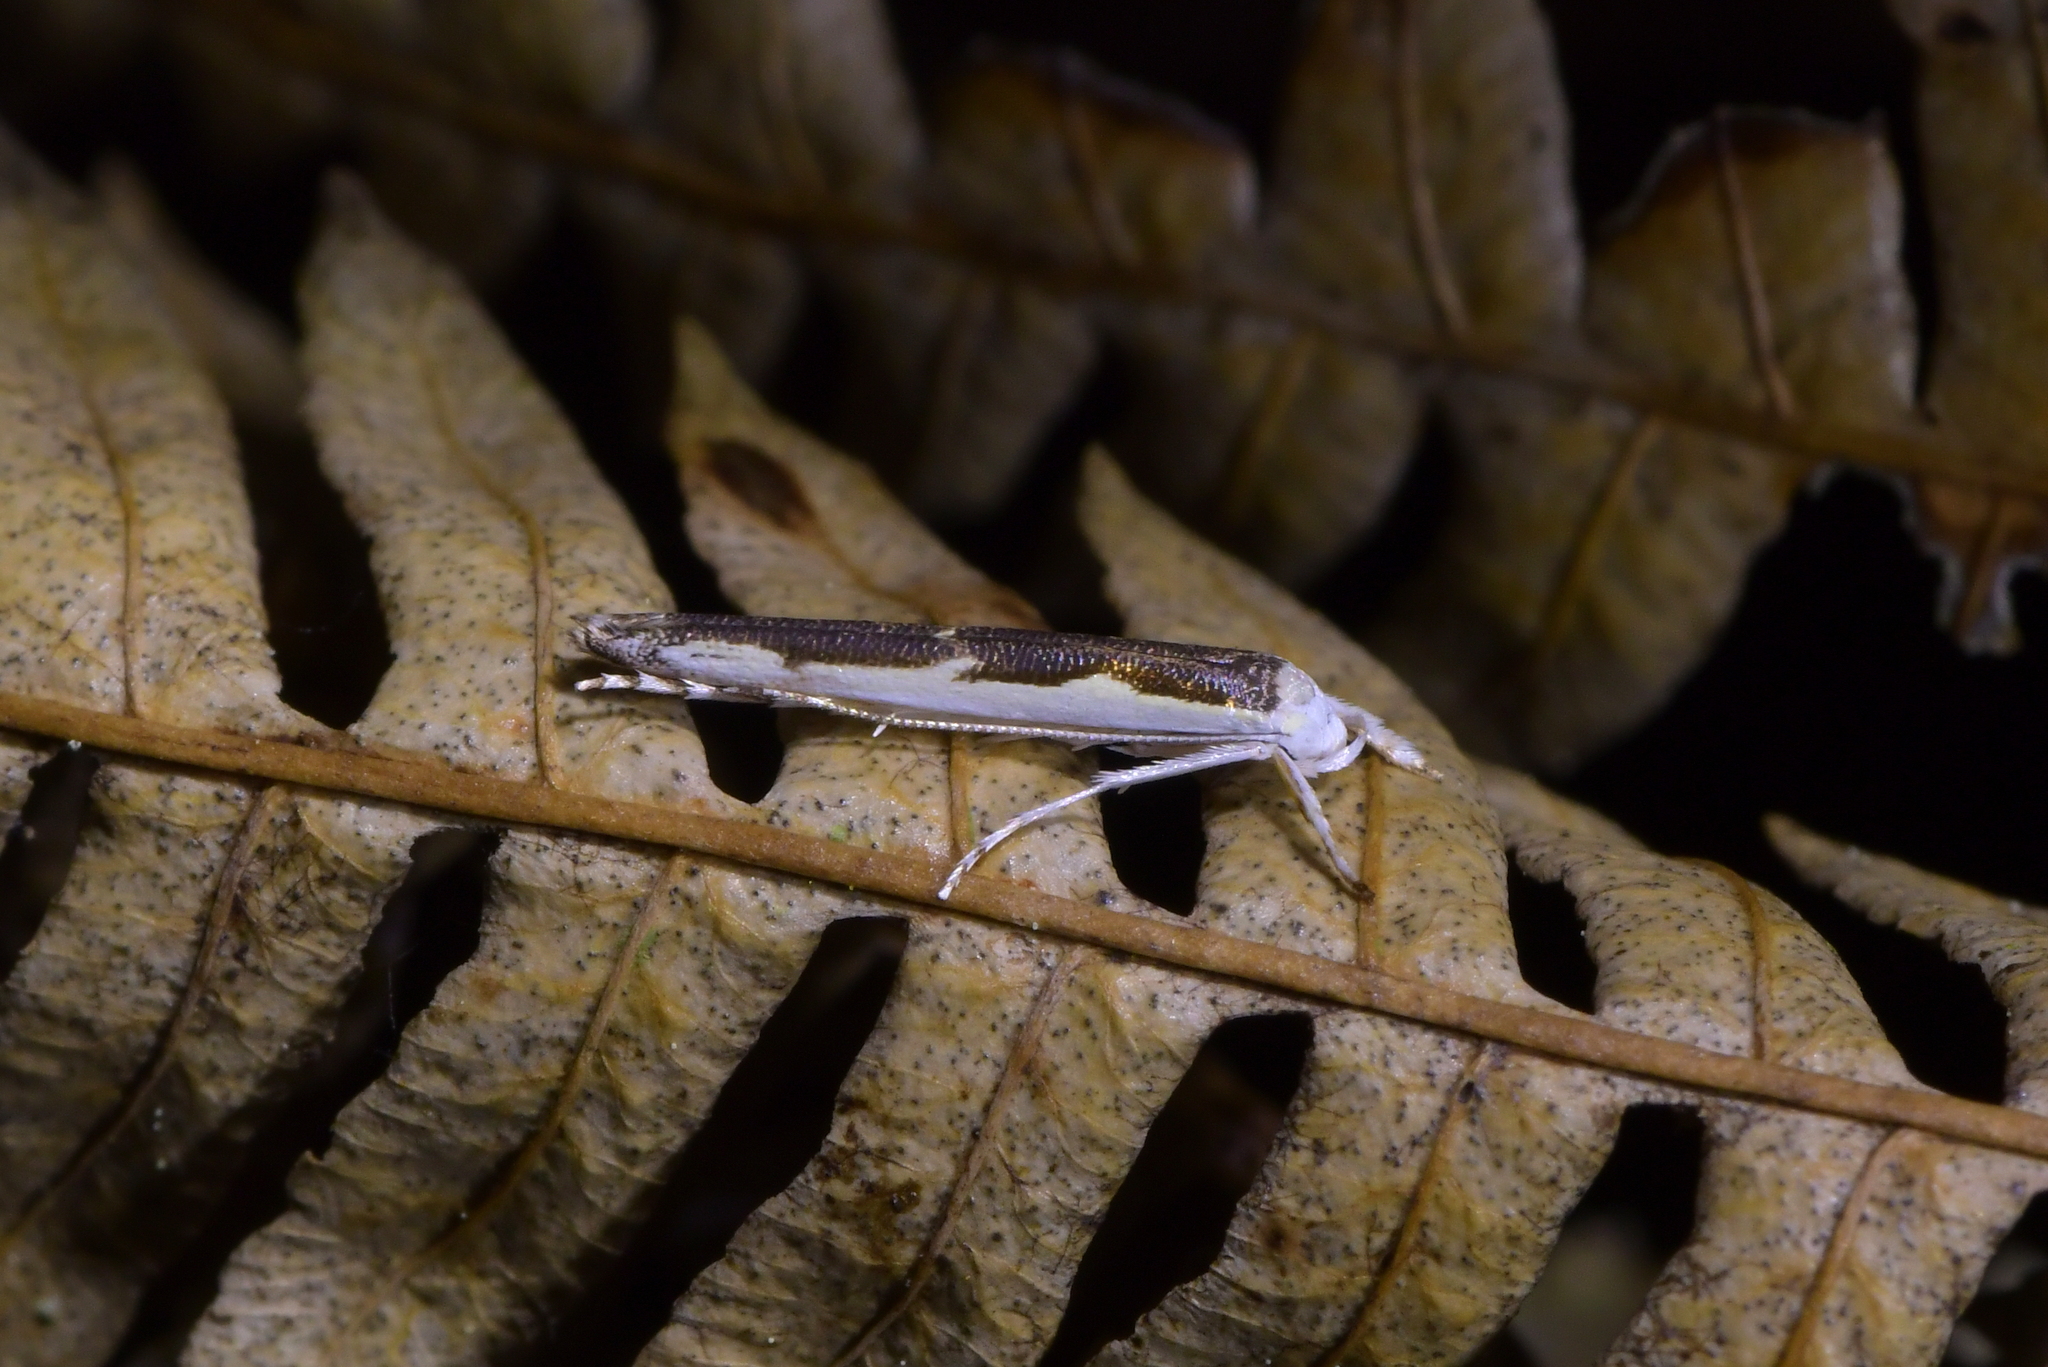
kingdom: Animalia
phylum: Arthropoda
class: Insecta
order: Lepidoptera
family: Roeslerstammiidae
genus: Vanicela
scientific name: Vanicela disjunctella
